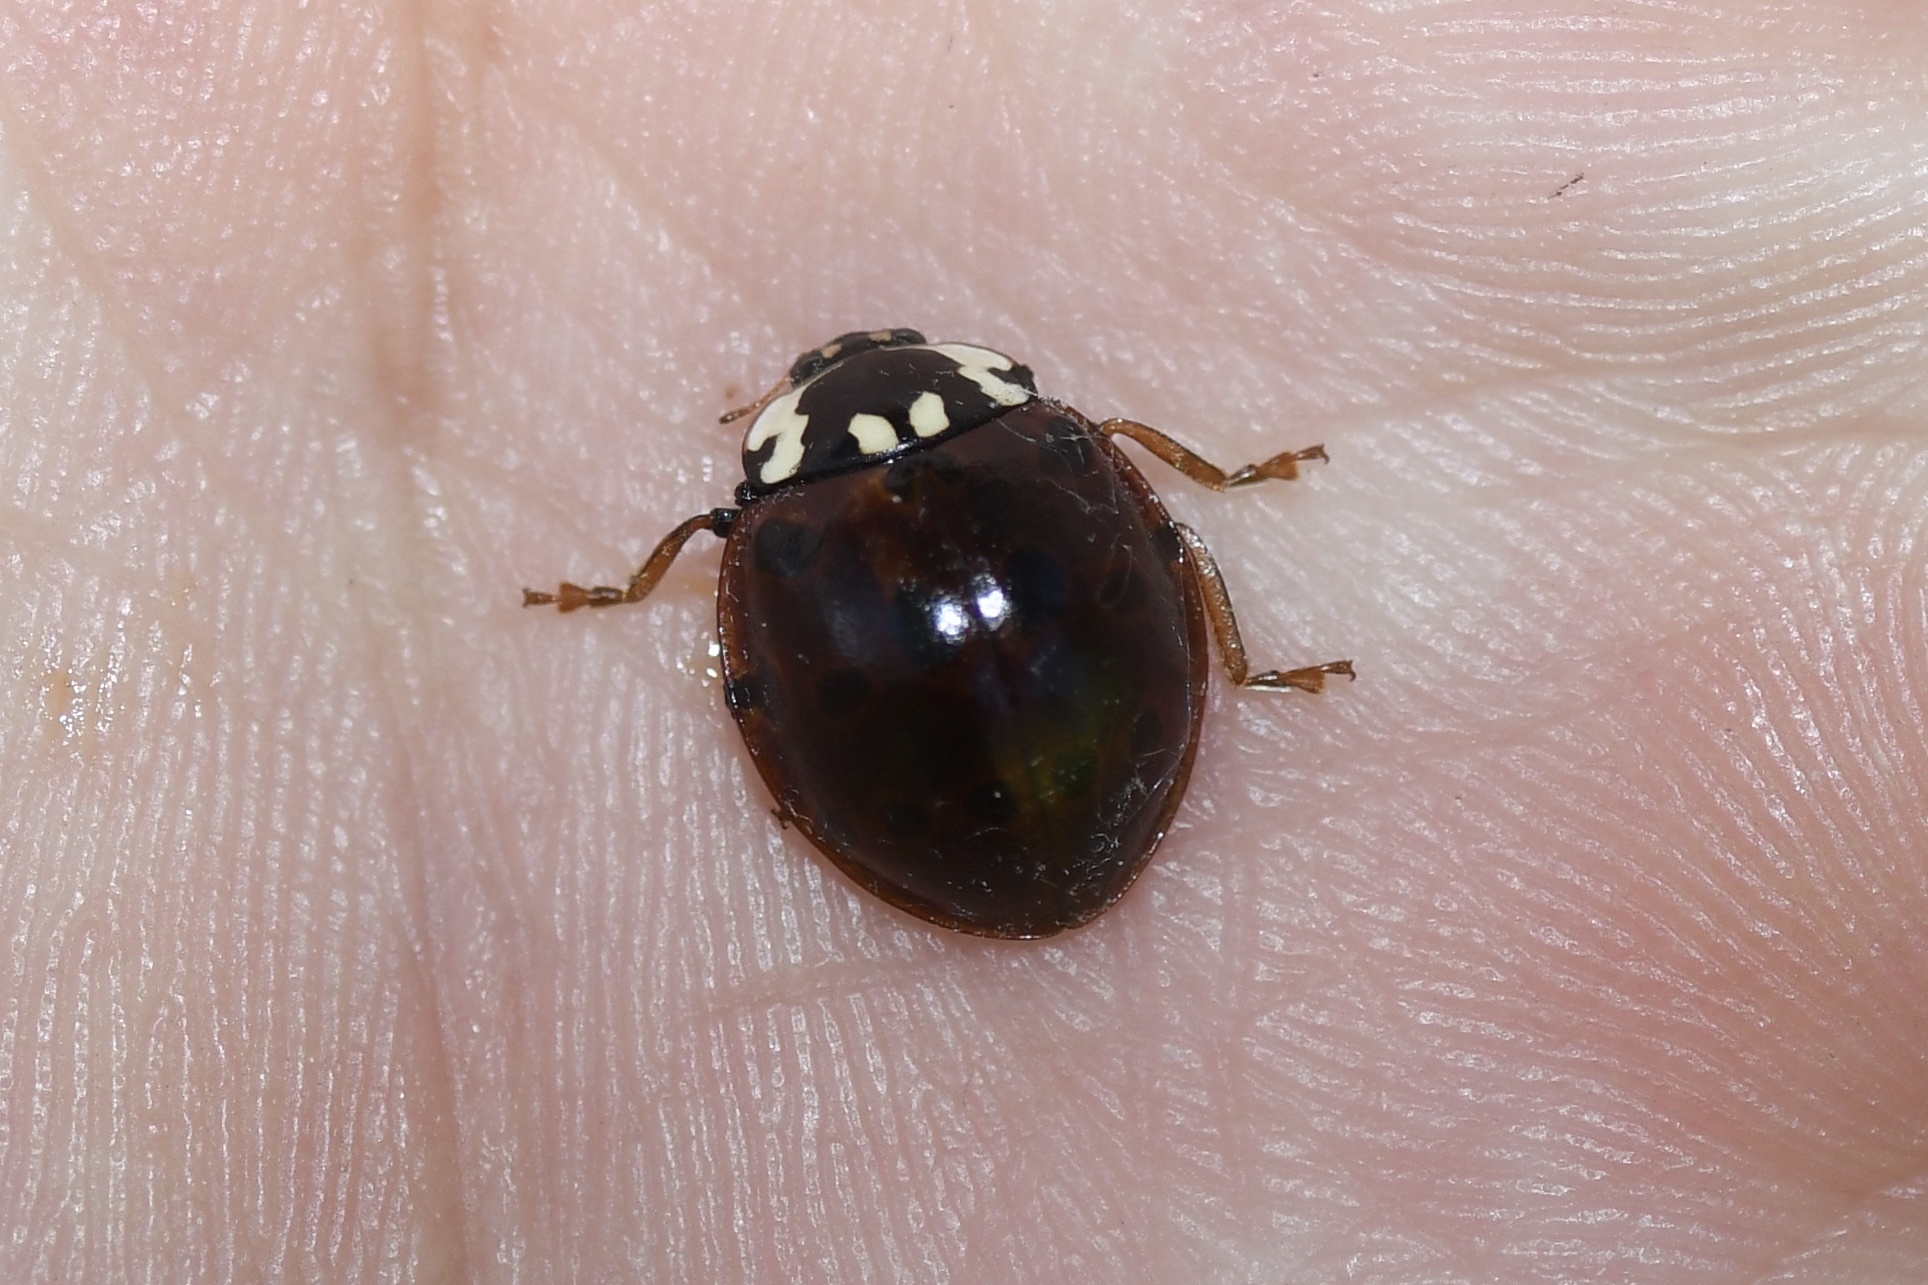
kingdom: Animalia
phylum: Arthropoda
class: Insecta
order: Coleoptera
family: Coccinellidae
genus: Anatis
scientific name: Anatis labiculata
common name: Fifteen-spotted lady beetle
